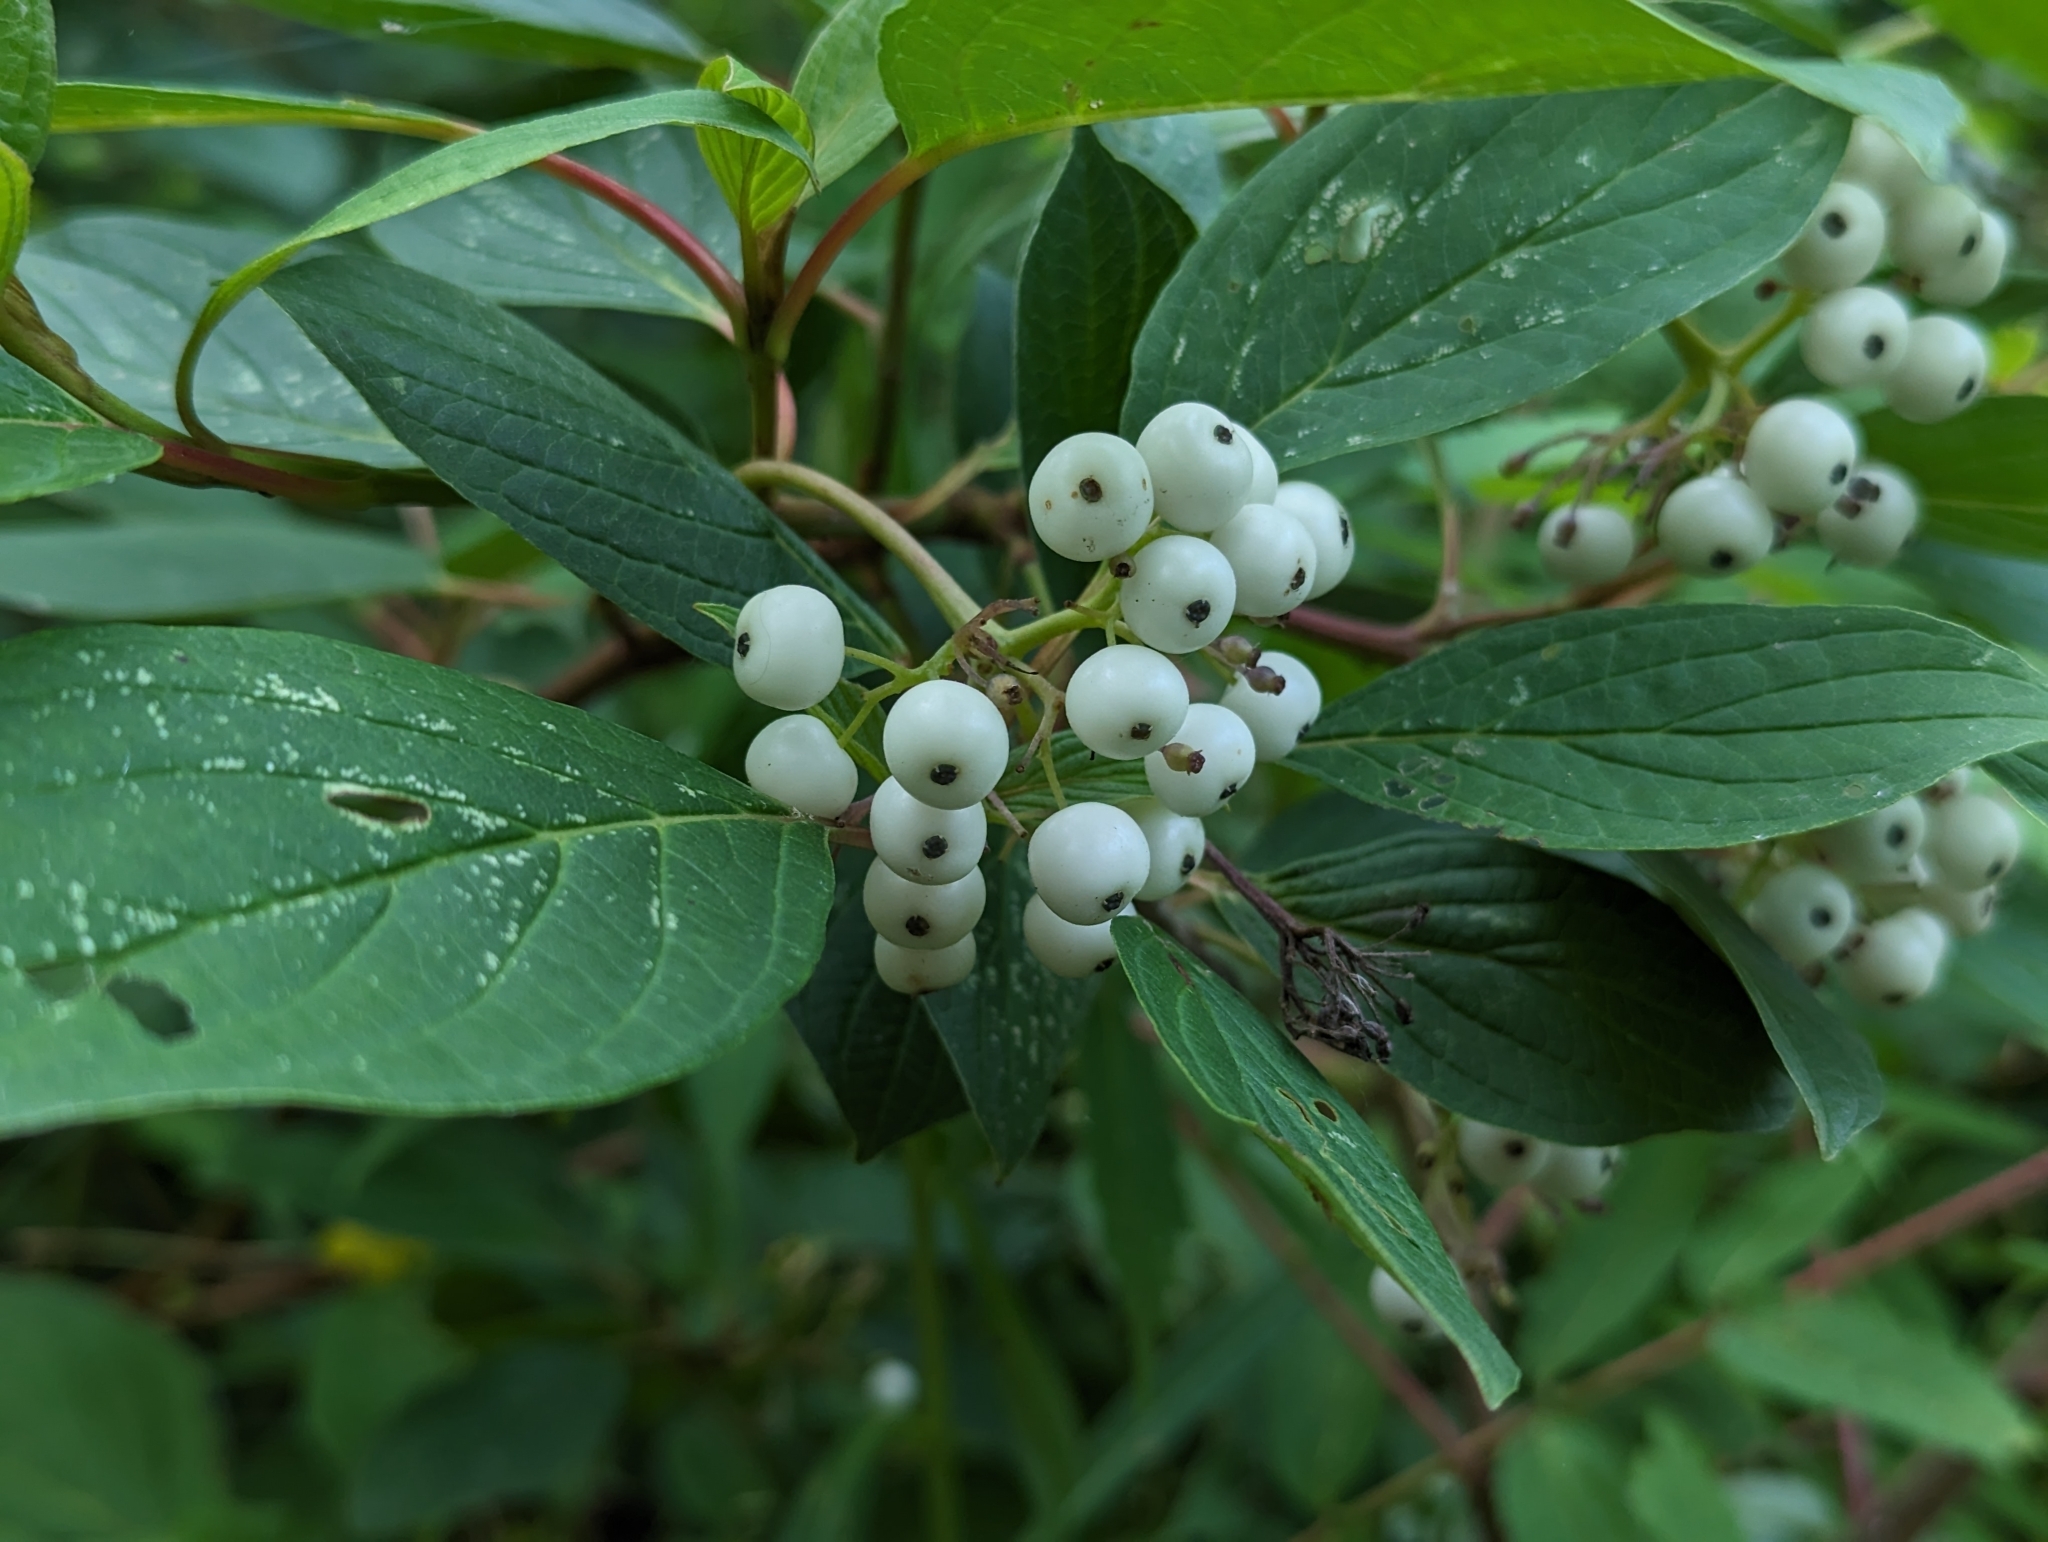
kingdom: Plantae
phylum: Tracheophyta
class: Magnoliopsida
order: Cornales
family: Cornaceae
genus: Cornus
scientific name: Cornus sericea
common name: Red-osier dogwood
